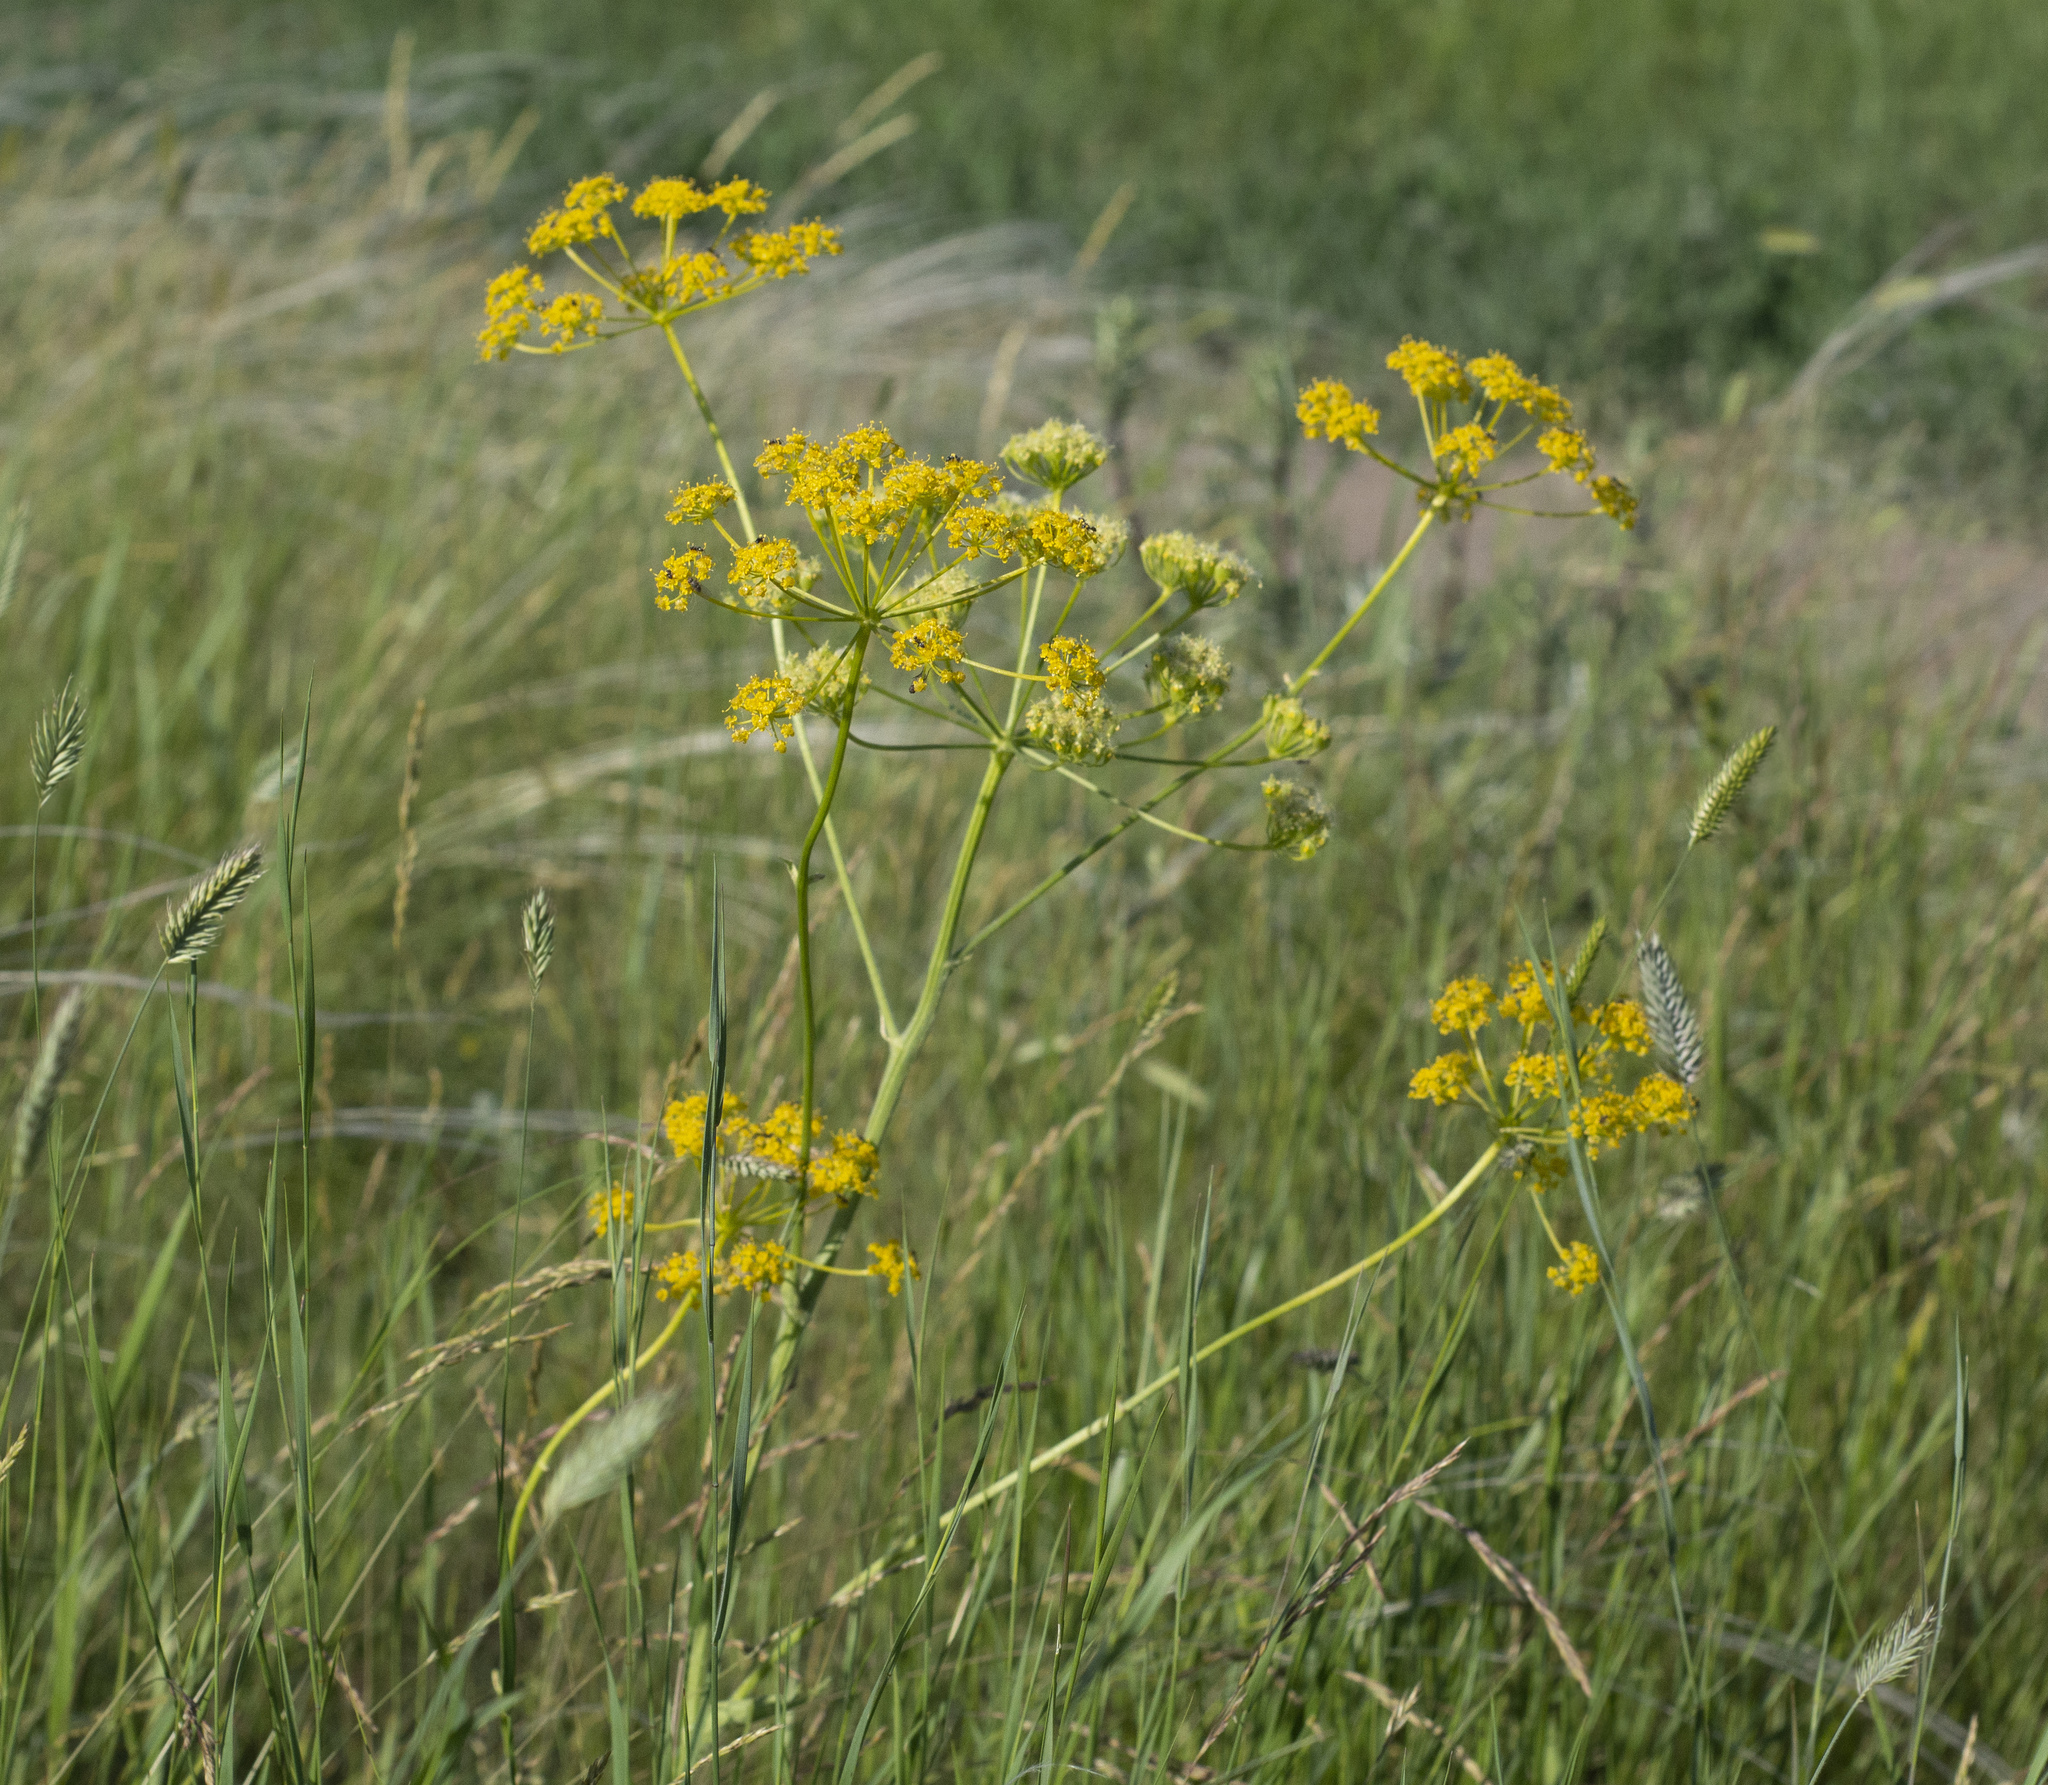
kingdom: Plantae
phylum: Tracheophyta
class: Magnoliopsida
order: Apiales
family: Apiaceae
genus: Pastinaca
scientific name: Pastinaca sativa
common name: Wild parsnip
